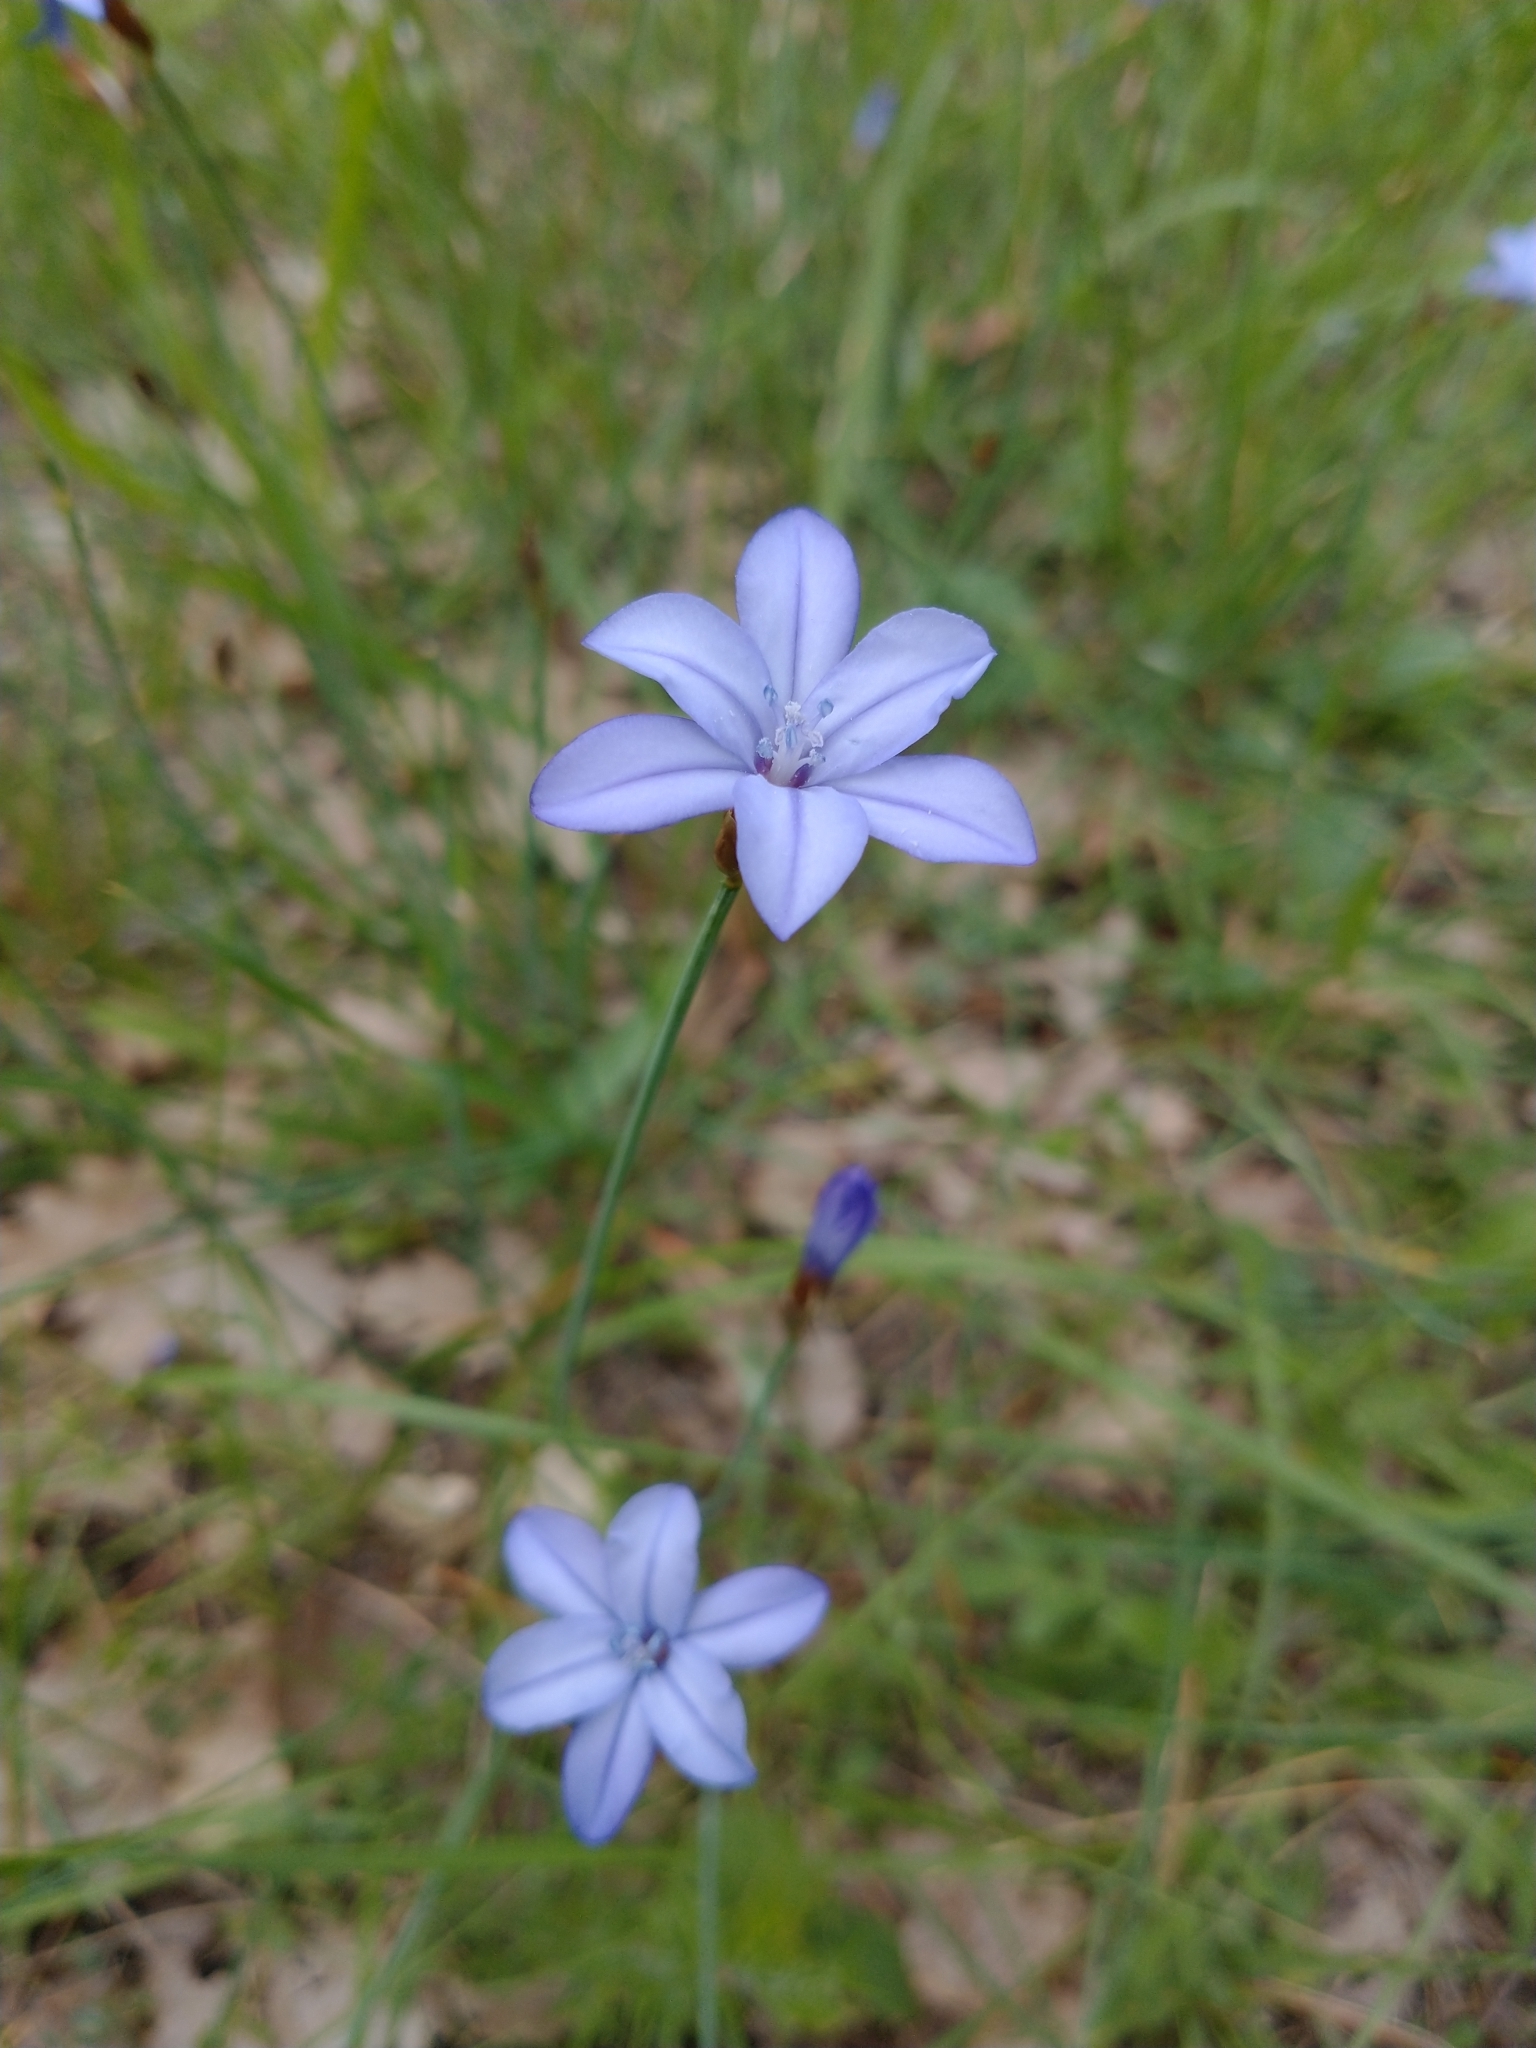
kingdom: Plantae
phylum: Tracheophyta
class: Liliopsida
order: Asparagales
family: Asparagaceae
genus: Aphyllanthes
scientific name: Aphyllanthes monspeliensis
